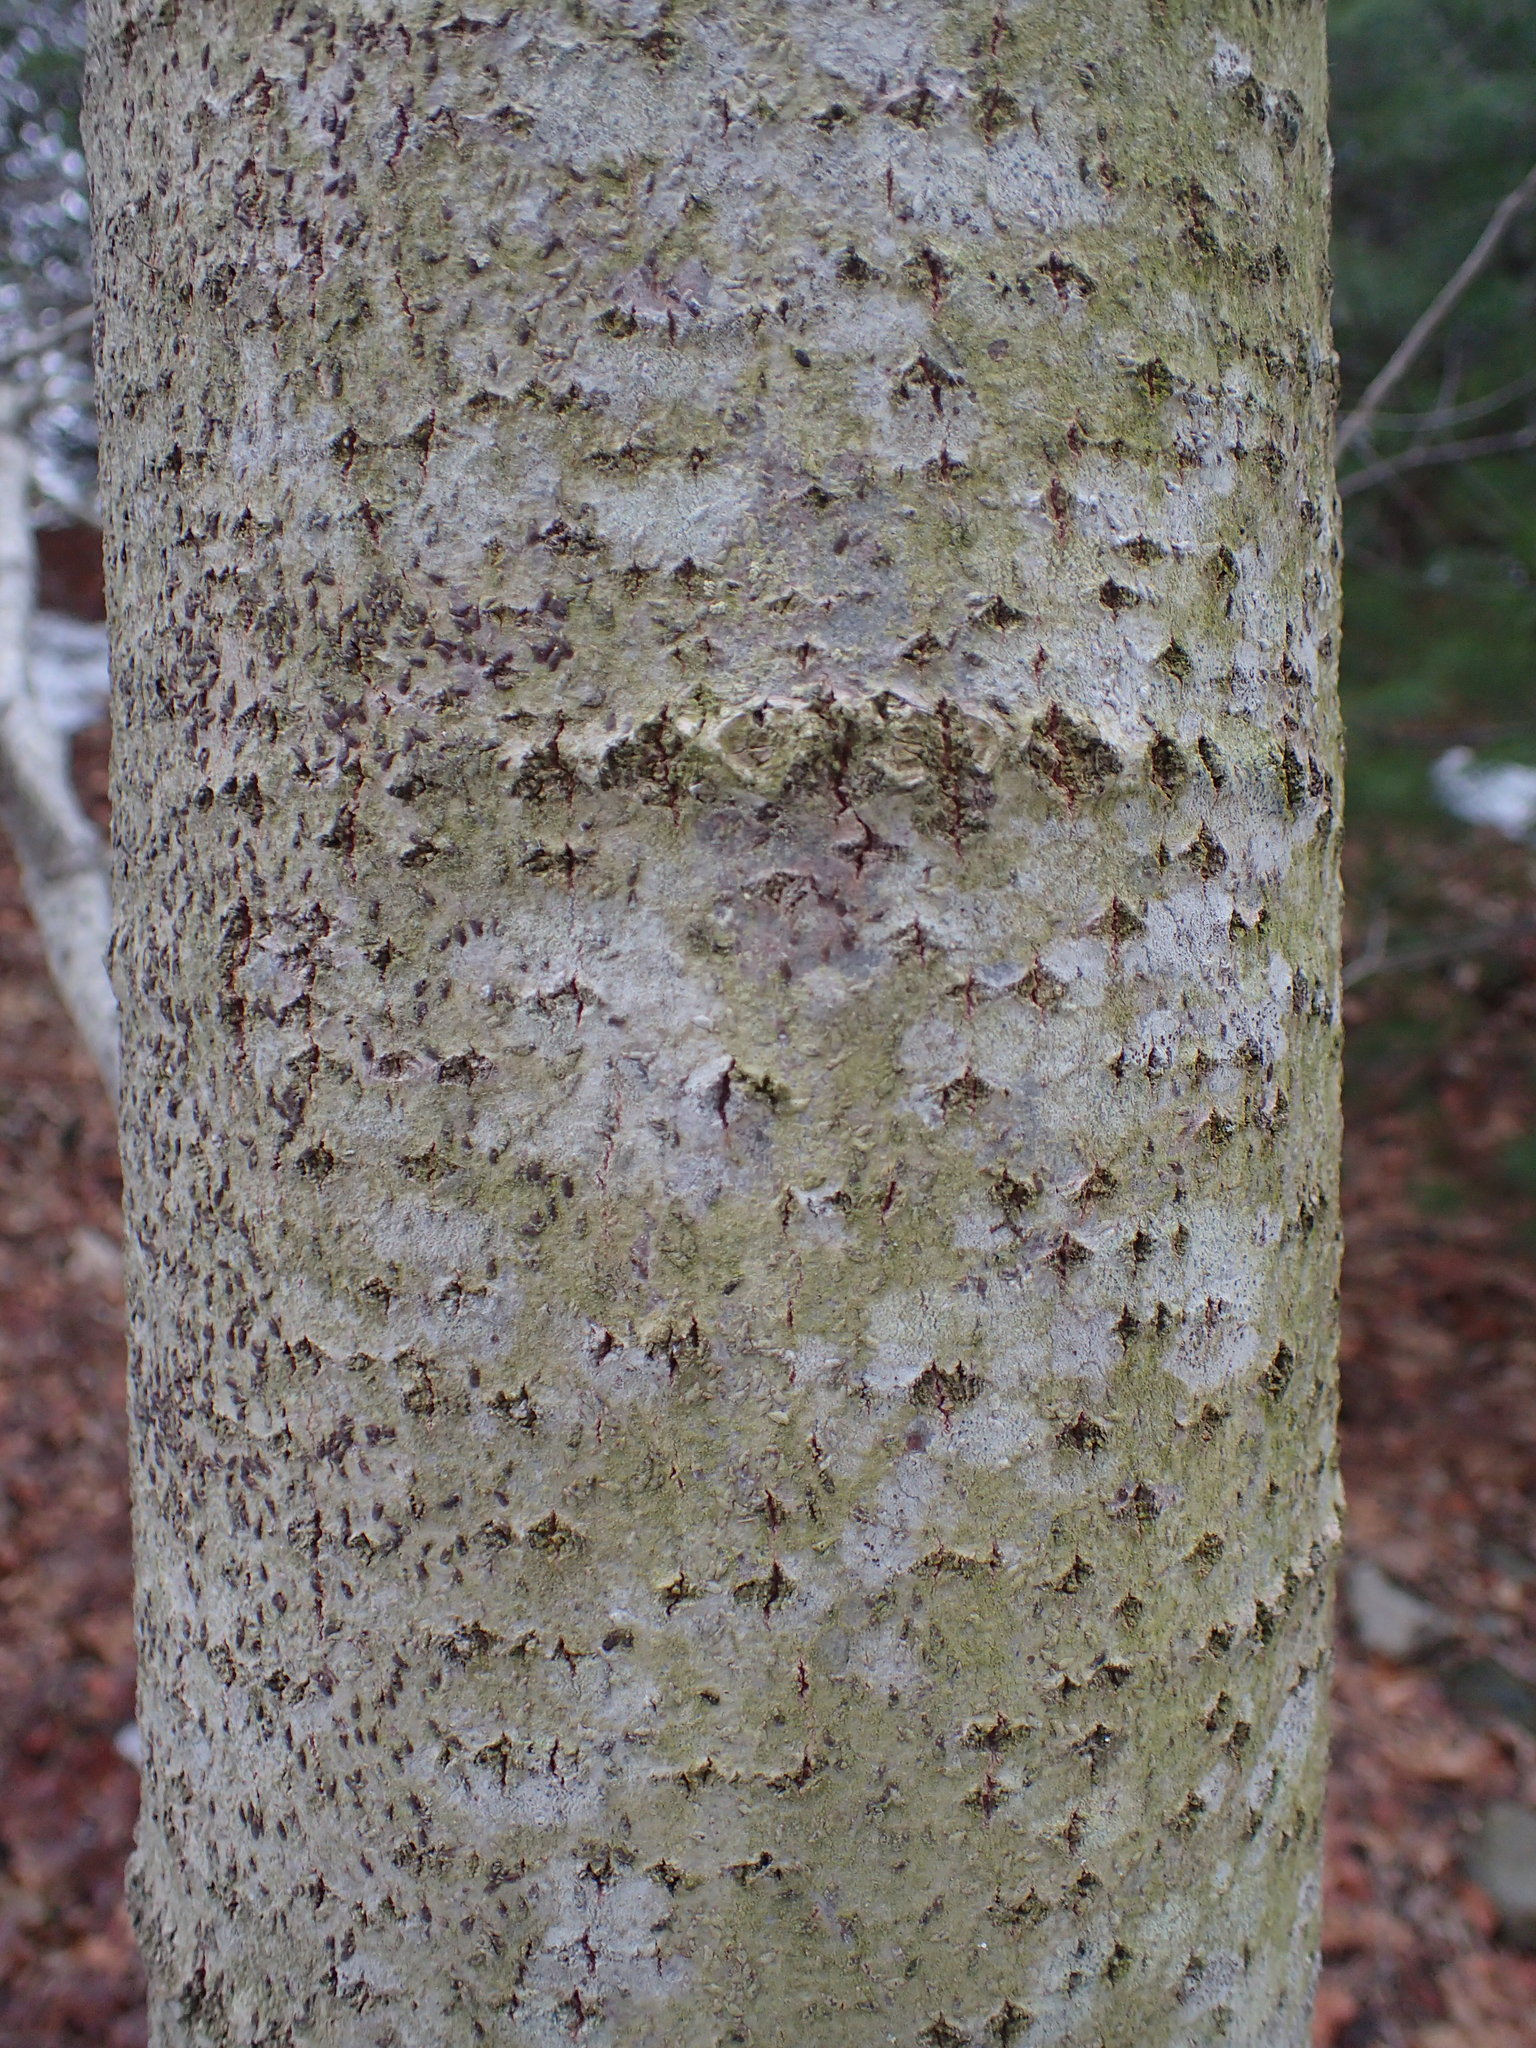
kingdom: Plantae
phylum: Tracheophyta
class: Magnoliopsida
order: Malpighiales
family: Salicaceae
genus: Populus
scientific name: Populus grandidentata
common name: Bigtooth aspen
